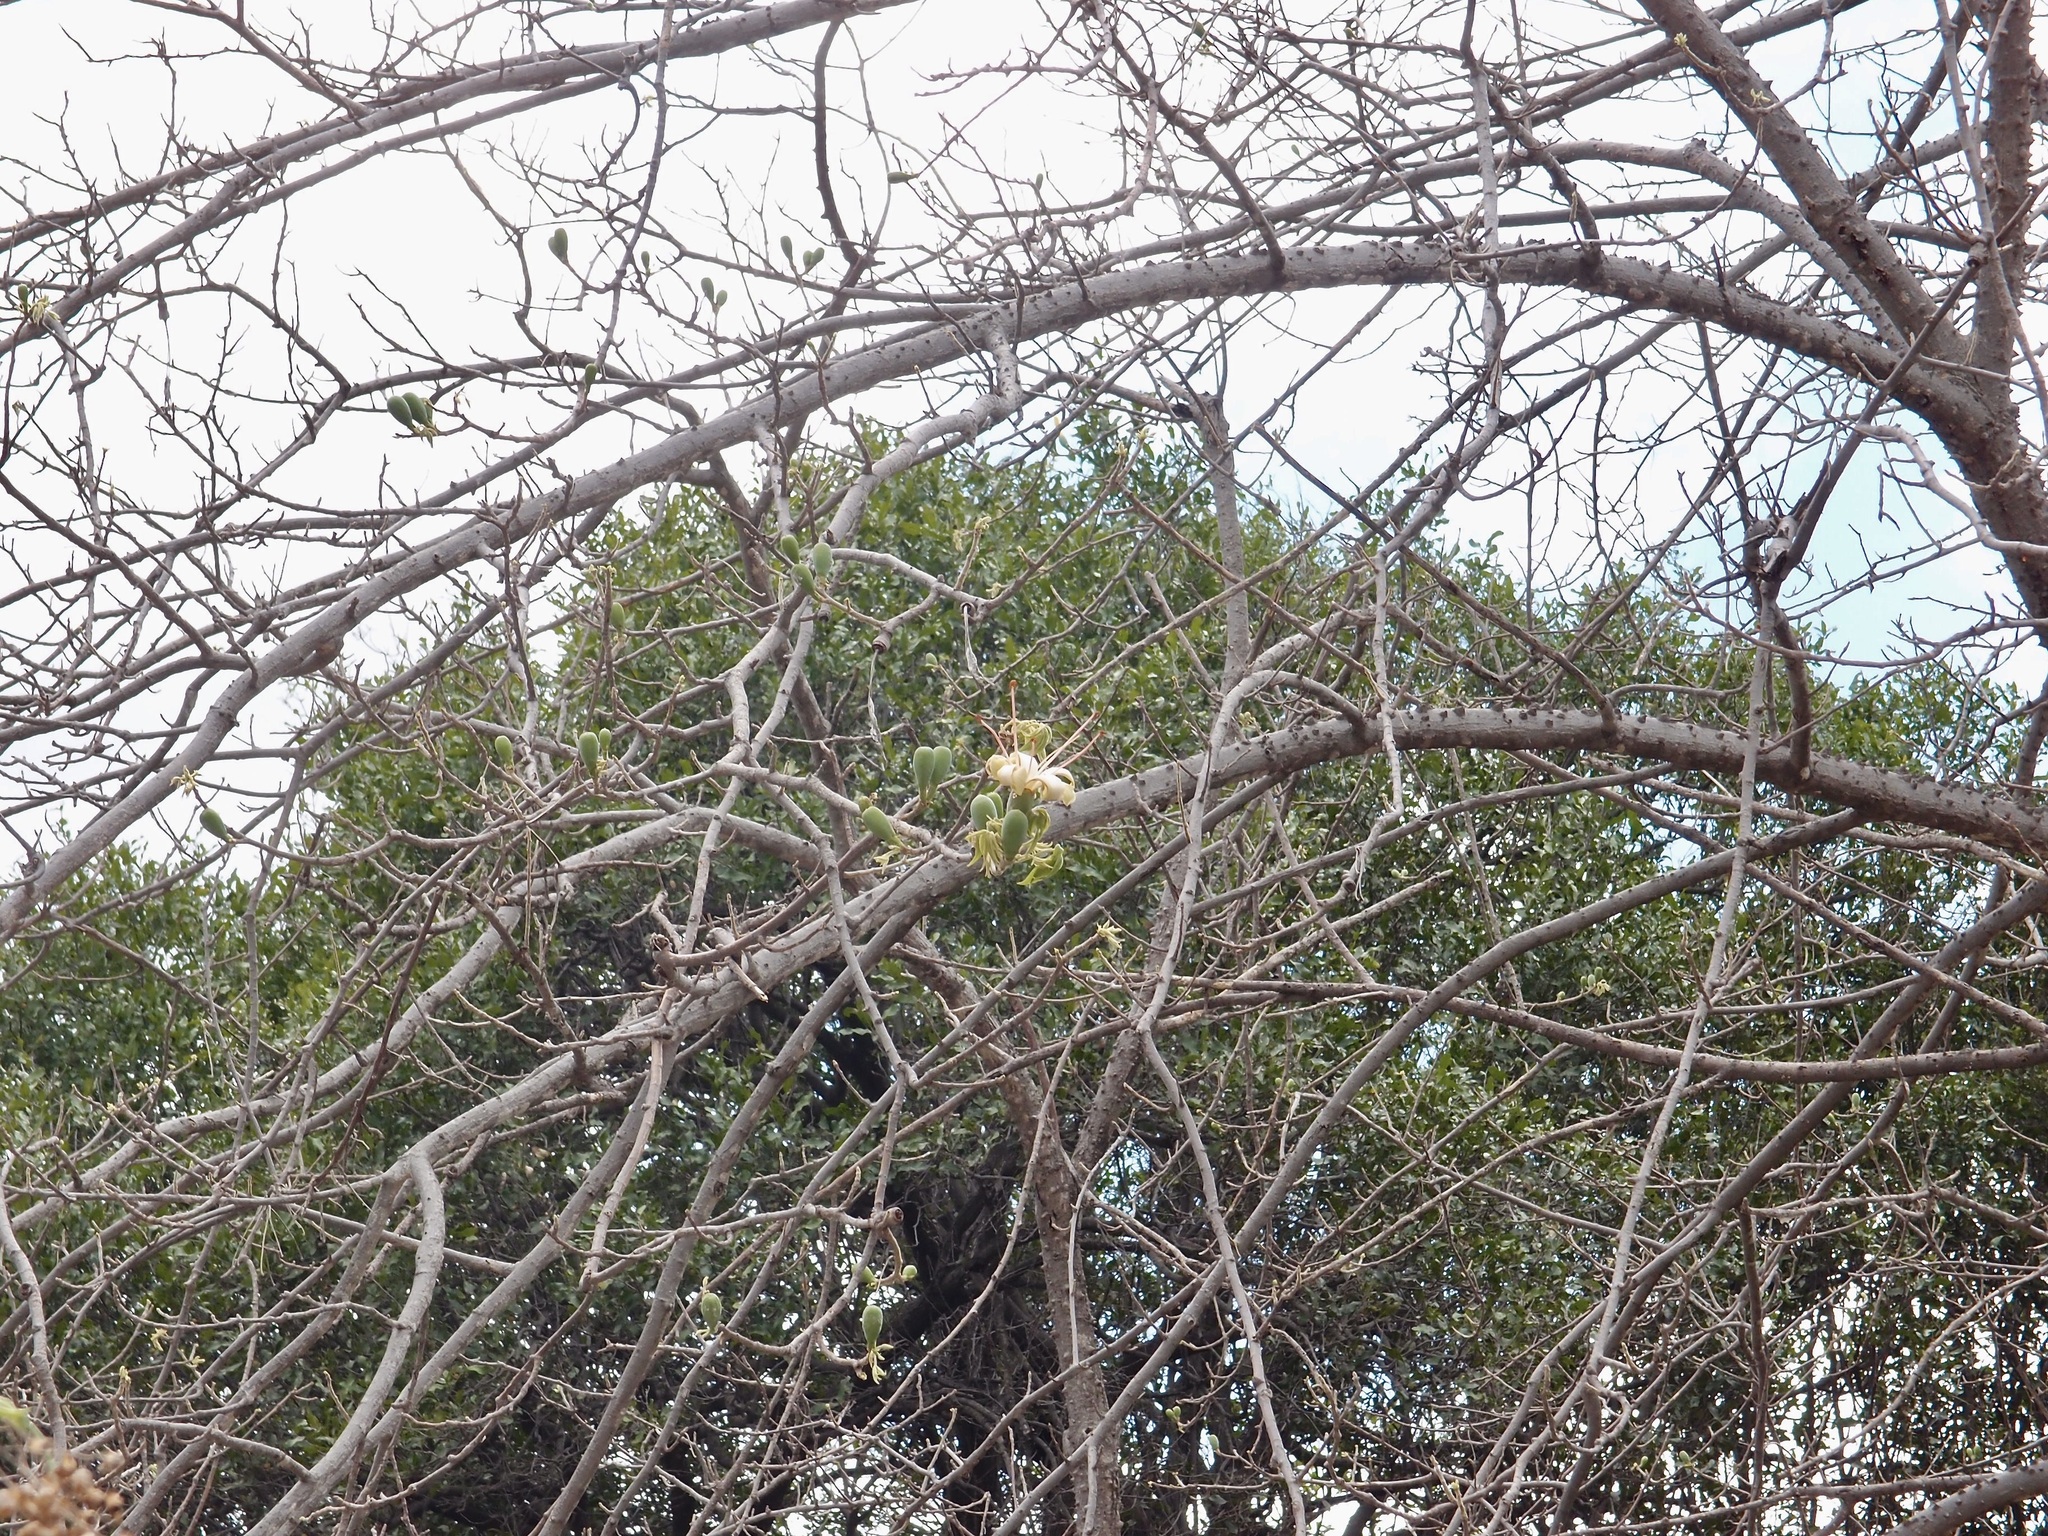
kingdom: Plantae
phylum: Tracheophyta
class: Magnoliopsida
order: Malvales
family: Malvaceae
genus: Ceiba
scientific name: Ceiba aesculifolia
